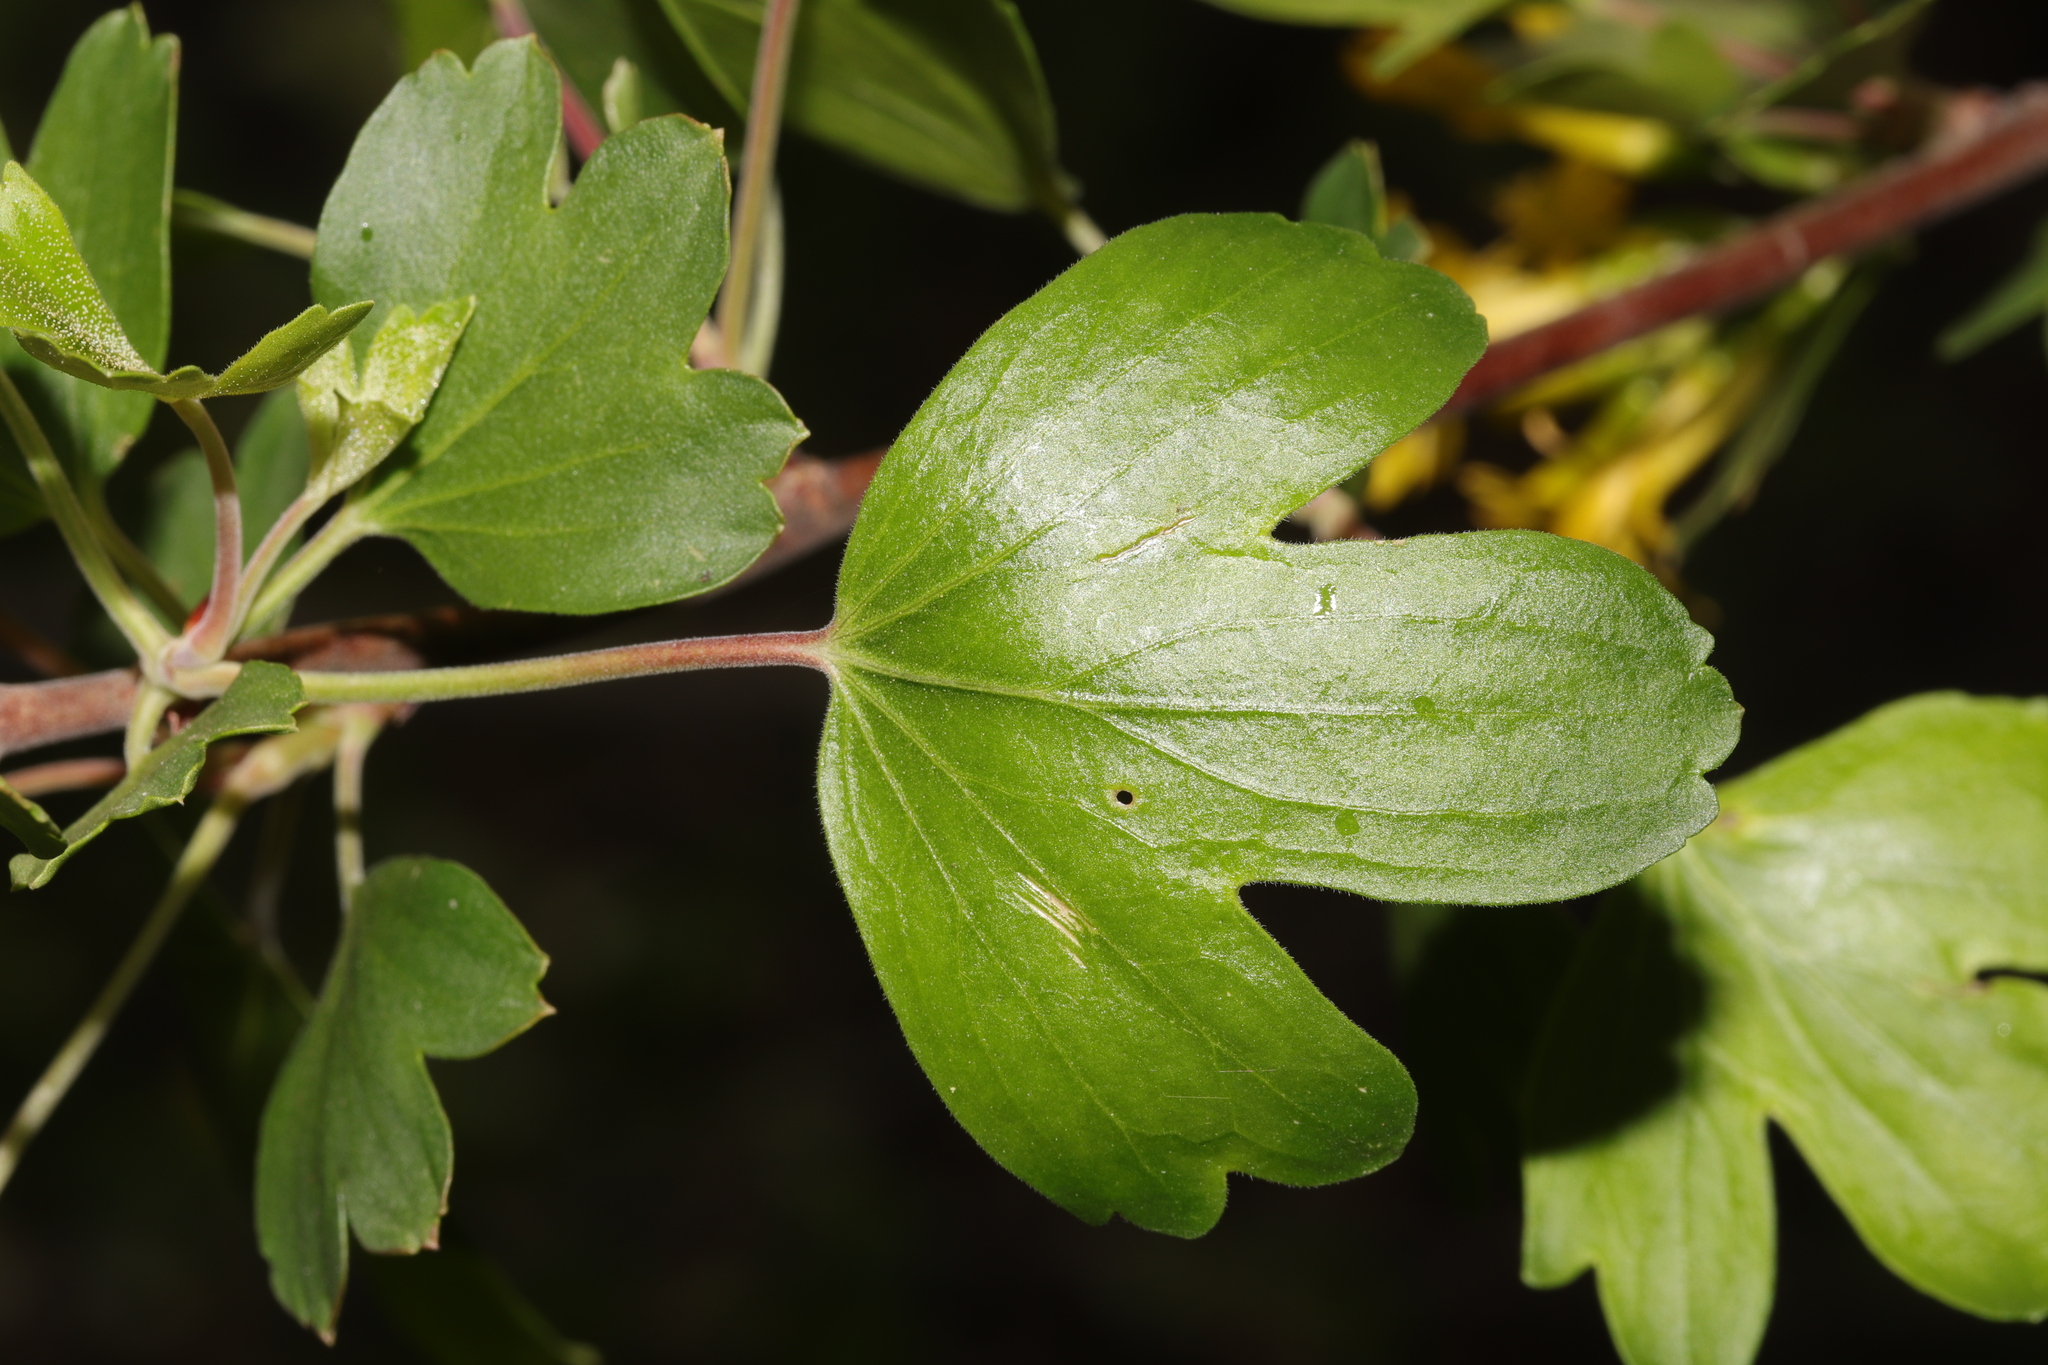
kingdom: Plantae
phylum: Tracheophyta
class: Magnoliopsida
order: Saxifragales
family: Grossulariaceae
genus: Ribes
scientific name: Ribes aureum
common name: Golden currant
